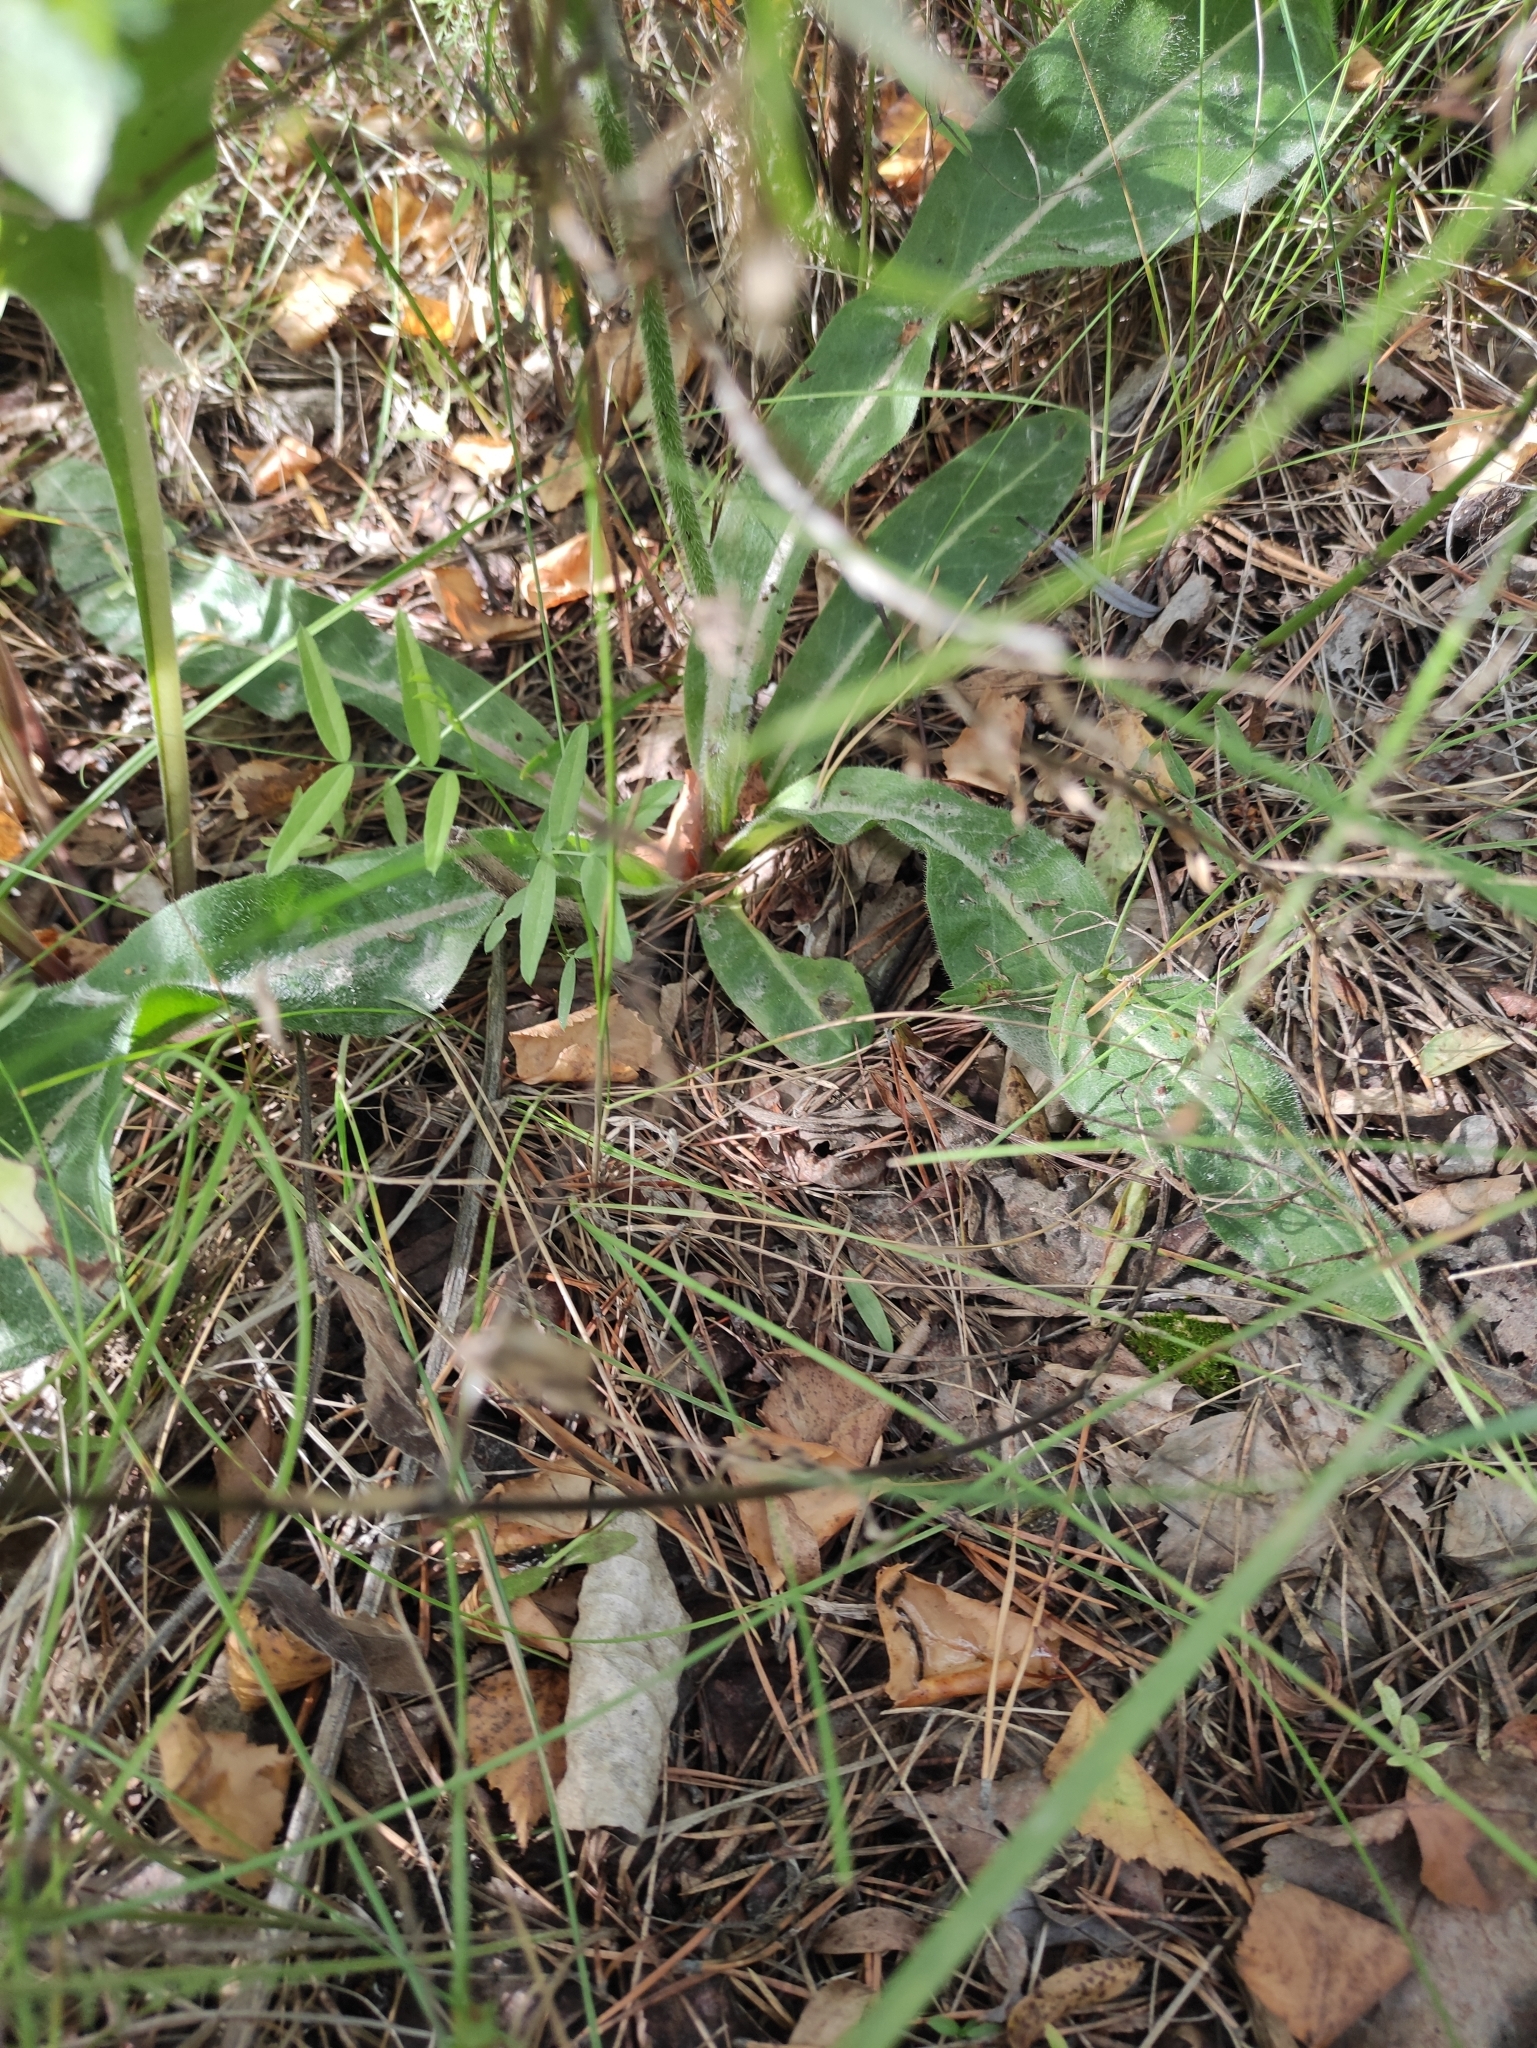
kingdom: Plantae
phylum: Tracheophyta
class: Magnoliopsida
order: Asterales
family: Asteraceae
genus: Trommsdorffia
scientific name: Trommsdorffia maculata
